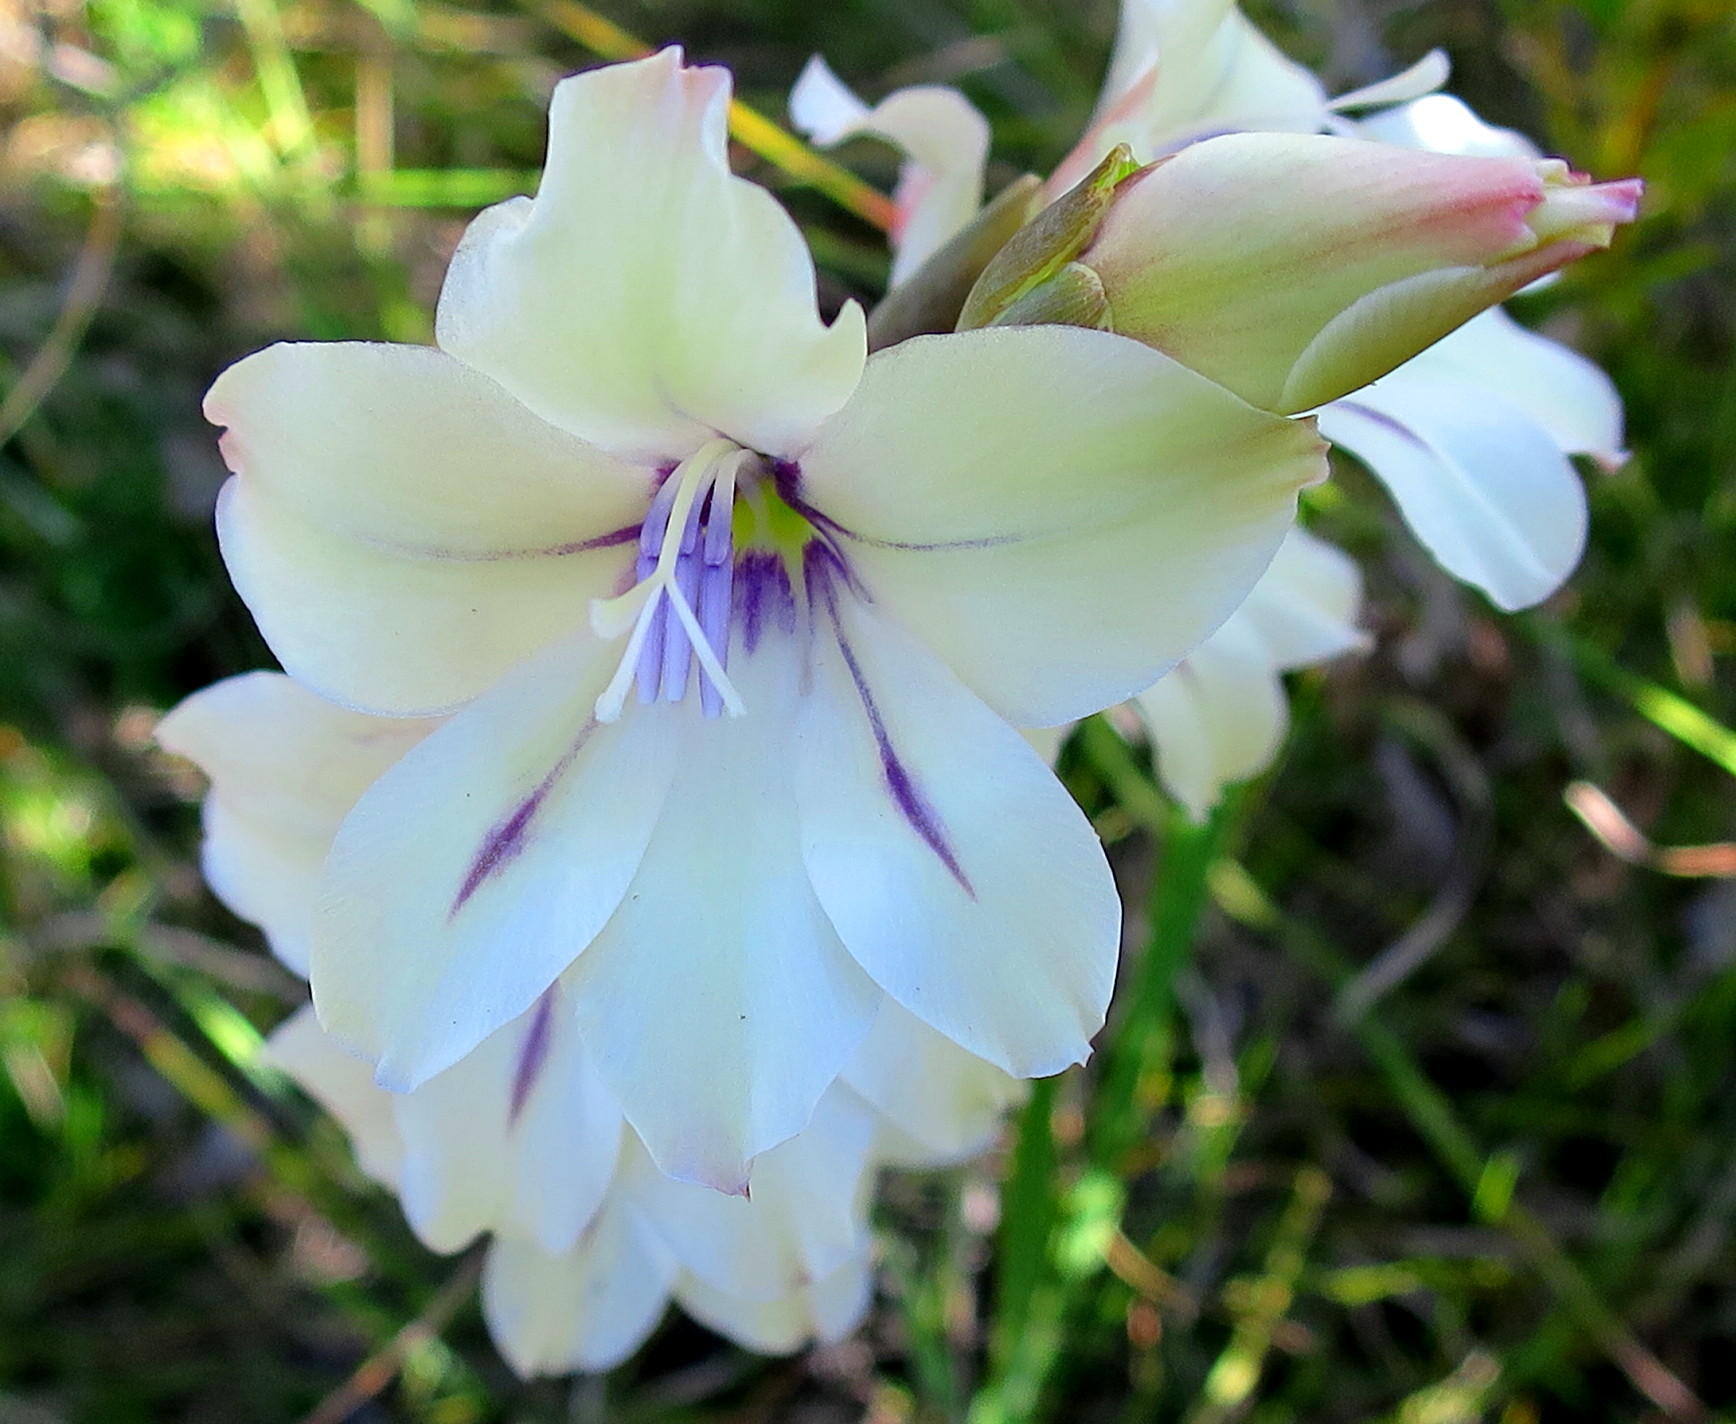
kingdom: Plantae
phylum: Tracheophyta
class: Liliopsida
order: Asparagales
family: Iridaceae
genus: Gladiolus
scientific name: Gladiolus floribundus
